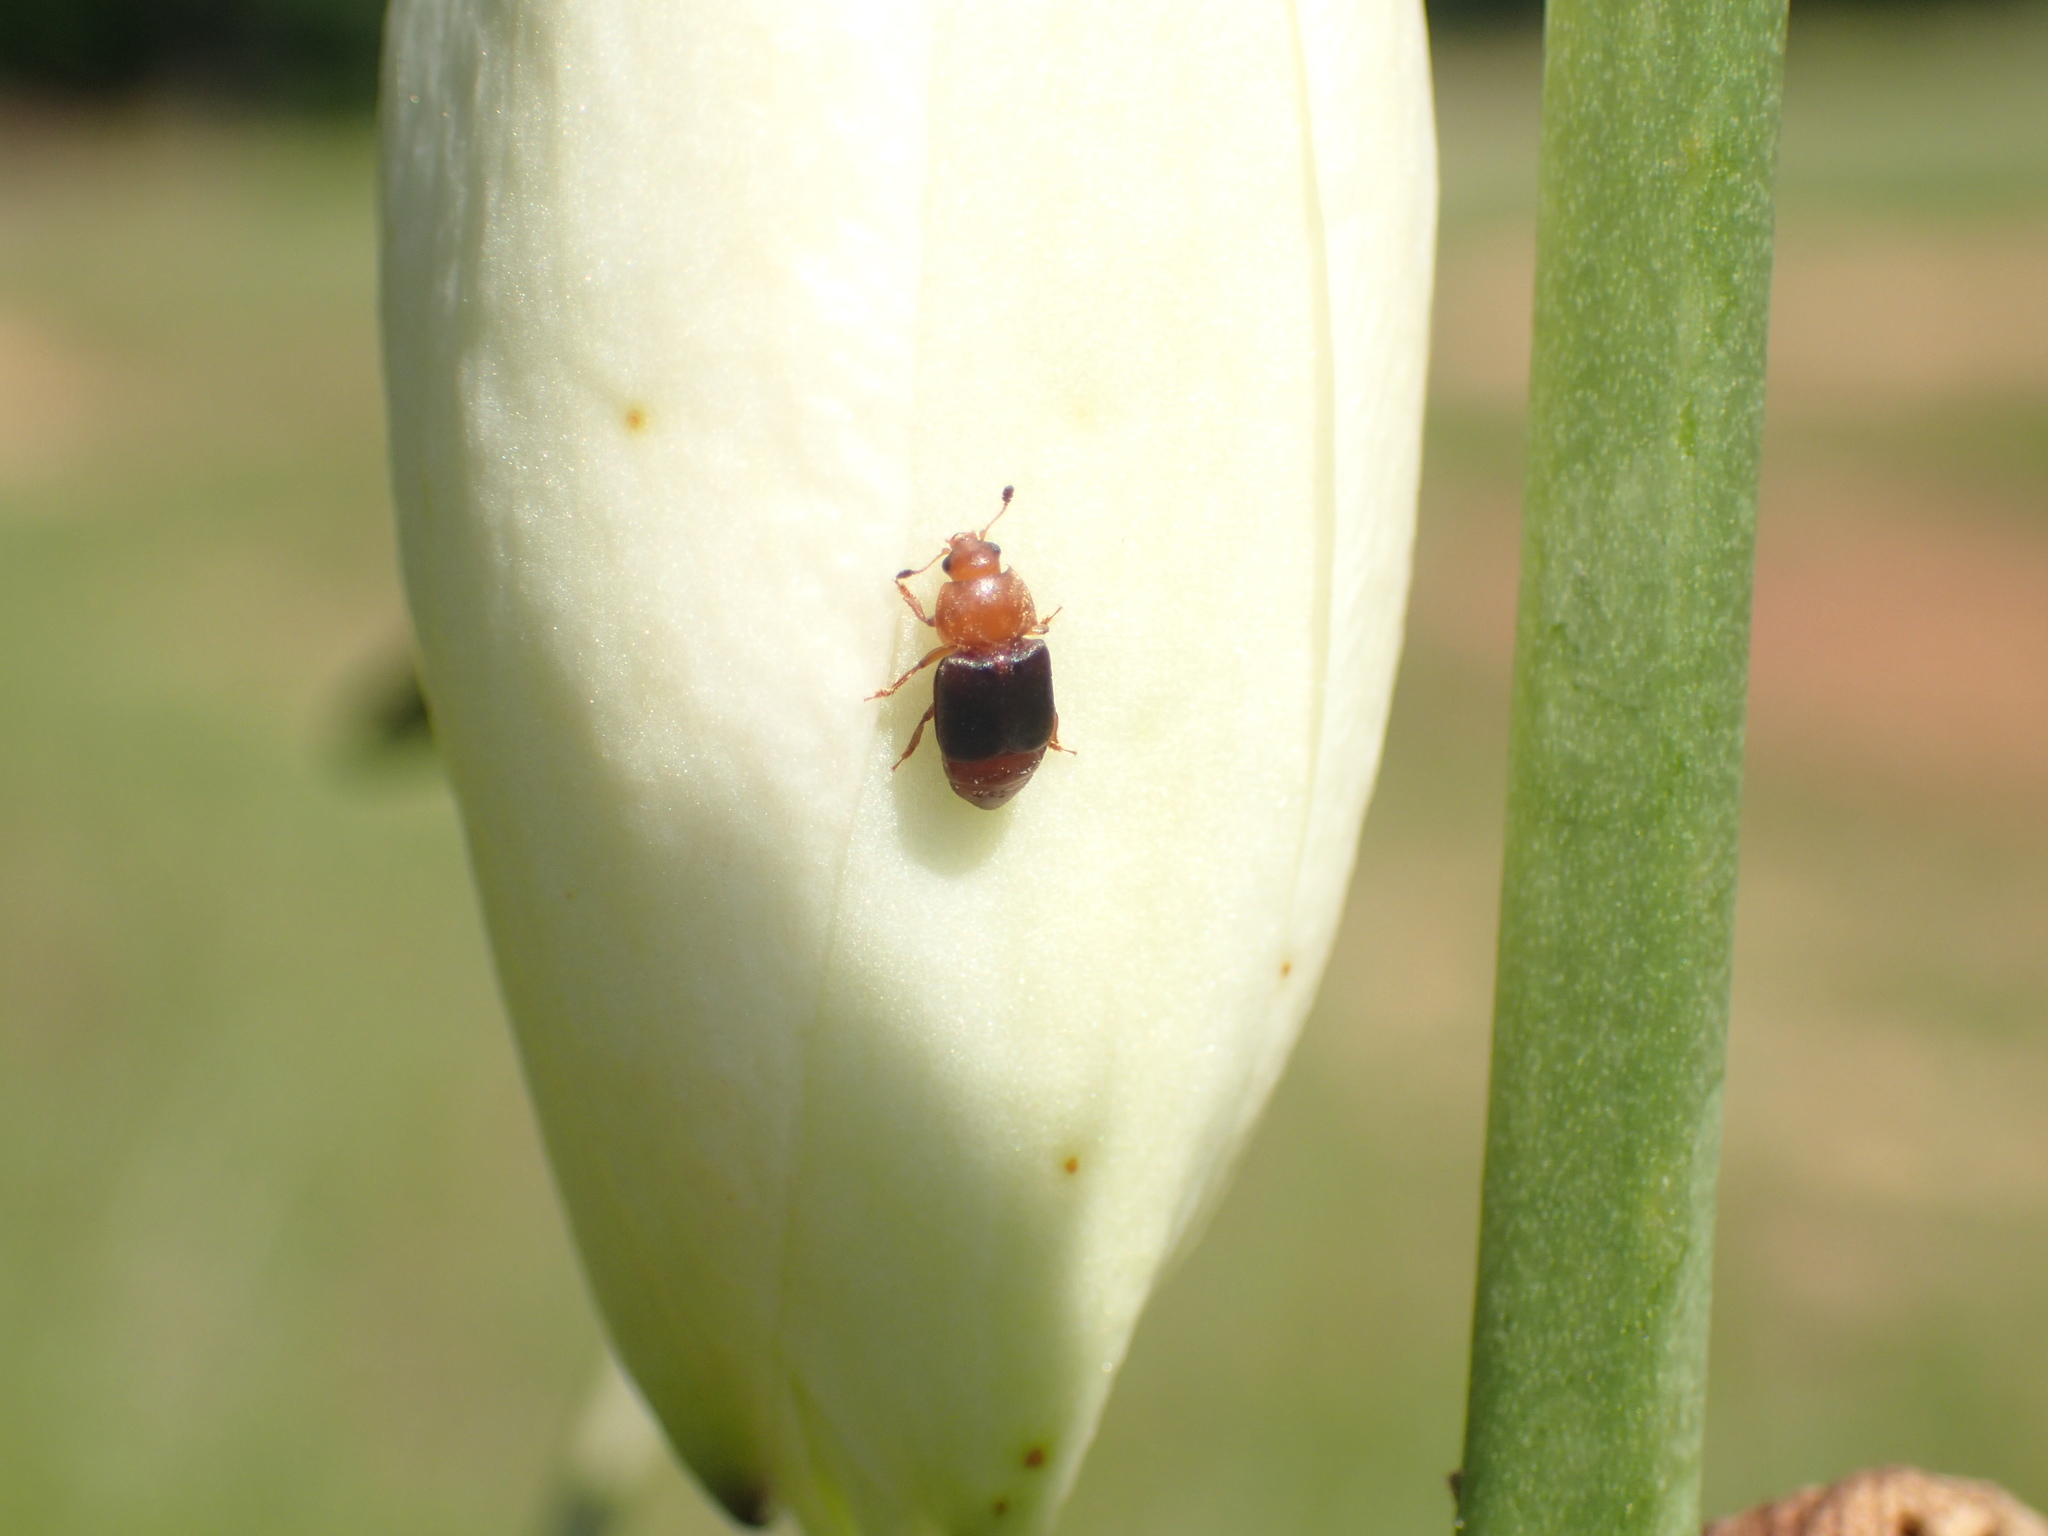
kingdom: Animalia
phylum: Arthropoda
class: Insecta
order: Coleoptera
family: Nitidulidae
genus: Carpophilus
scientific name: Carpophilus
